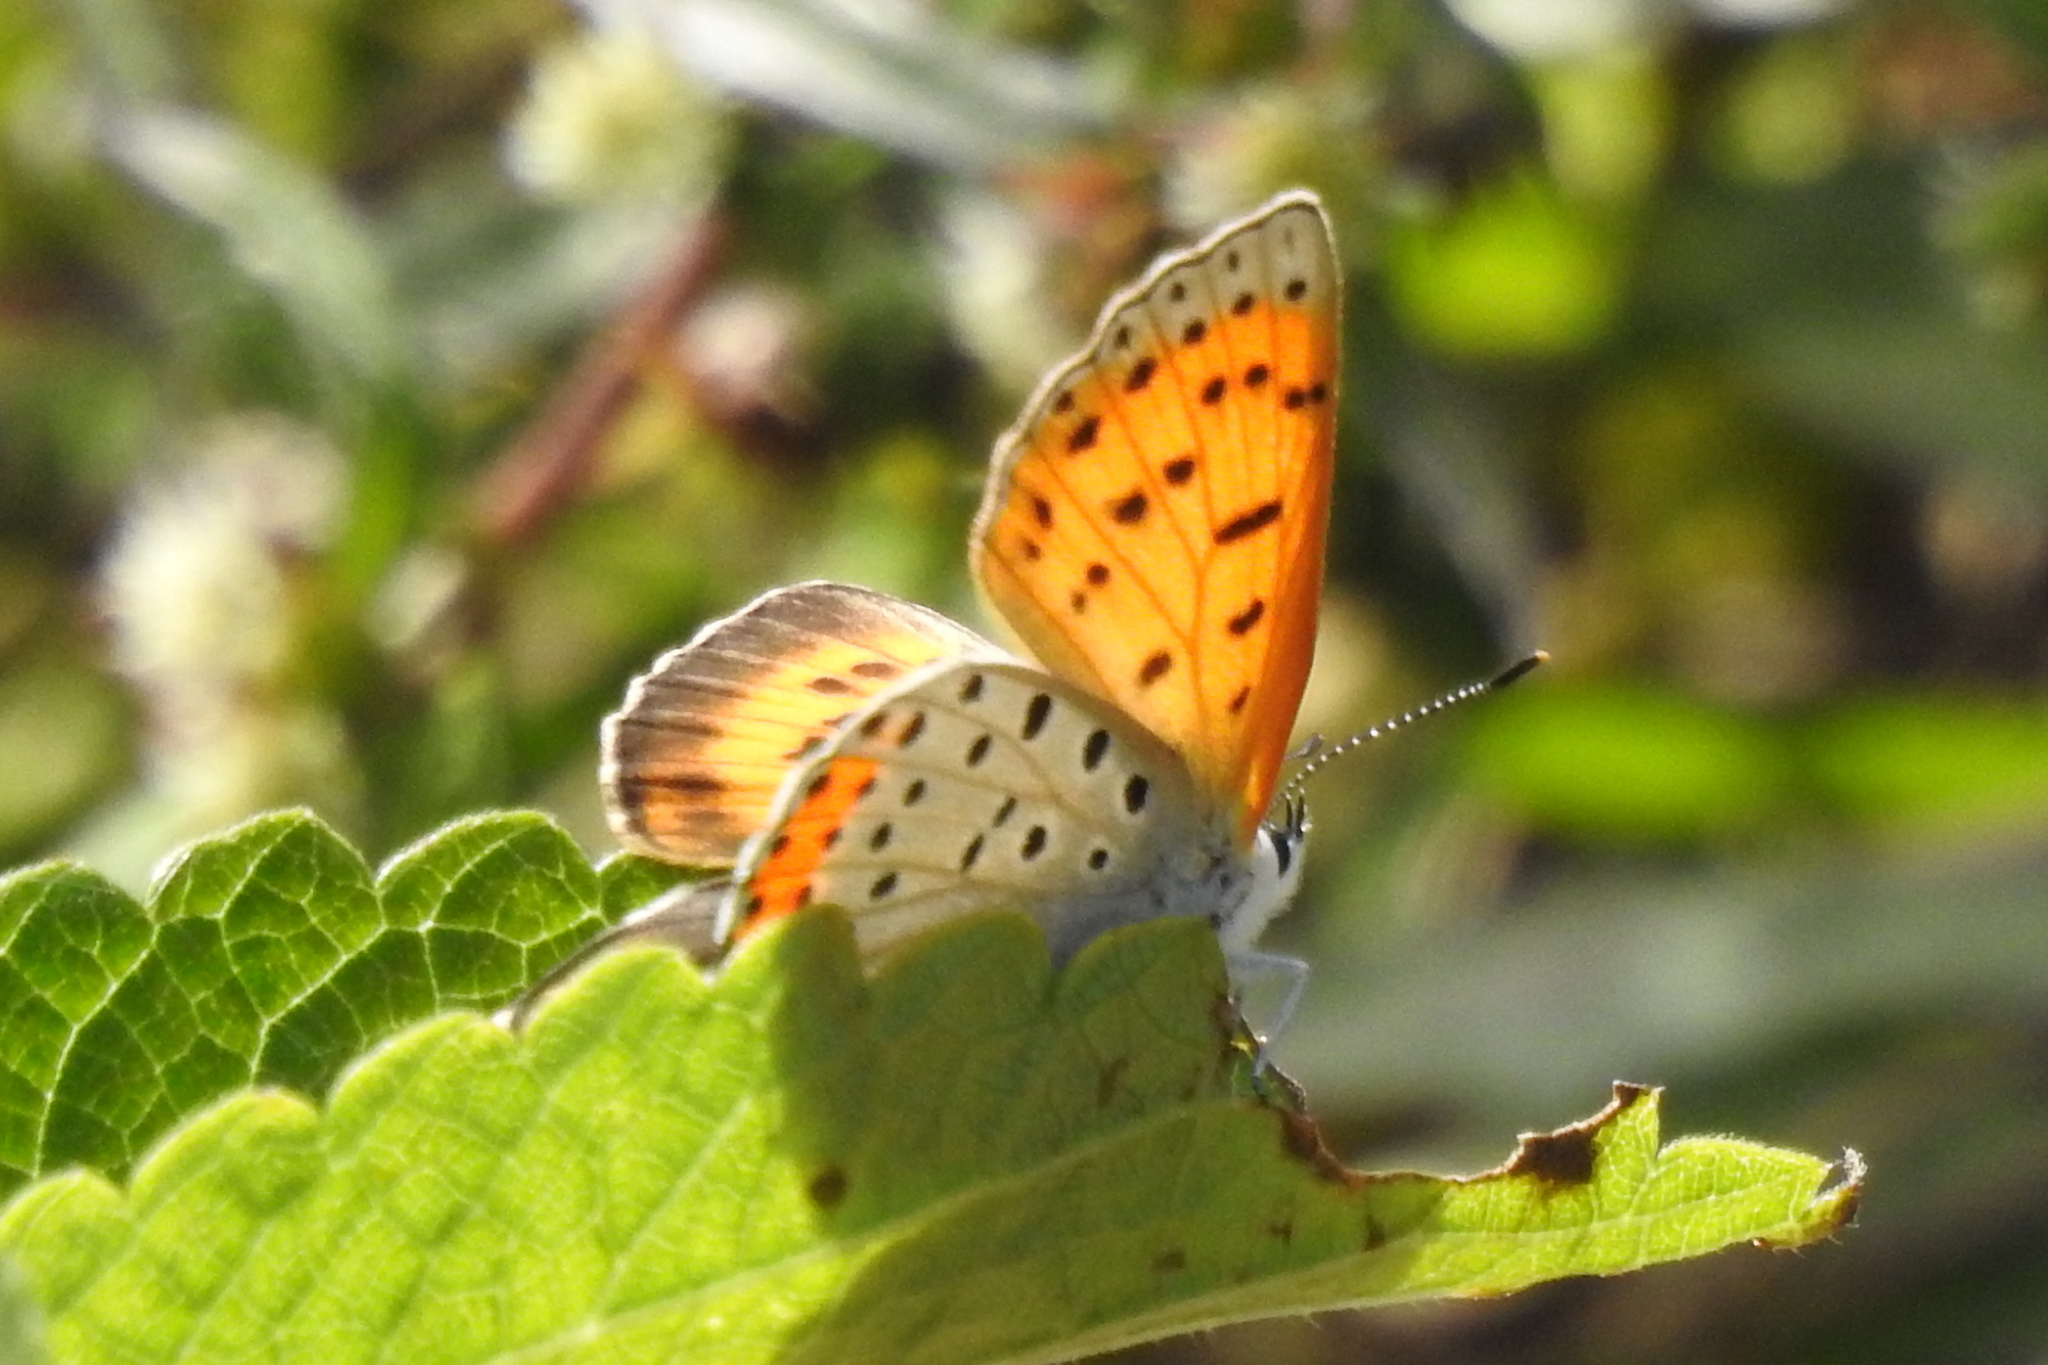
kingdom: Animalia
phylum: Arthropoda
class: Insecta
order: Lepidoptera
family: Lycaenidae
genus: Tharsalea
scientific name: Tharsalea hyllus
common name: Bronze copper
